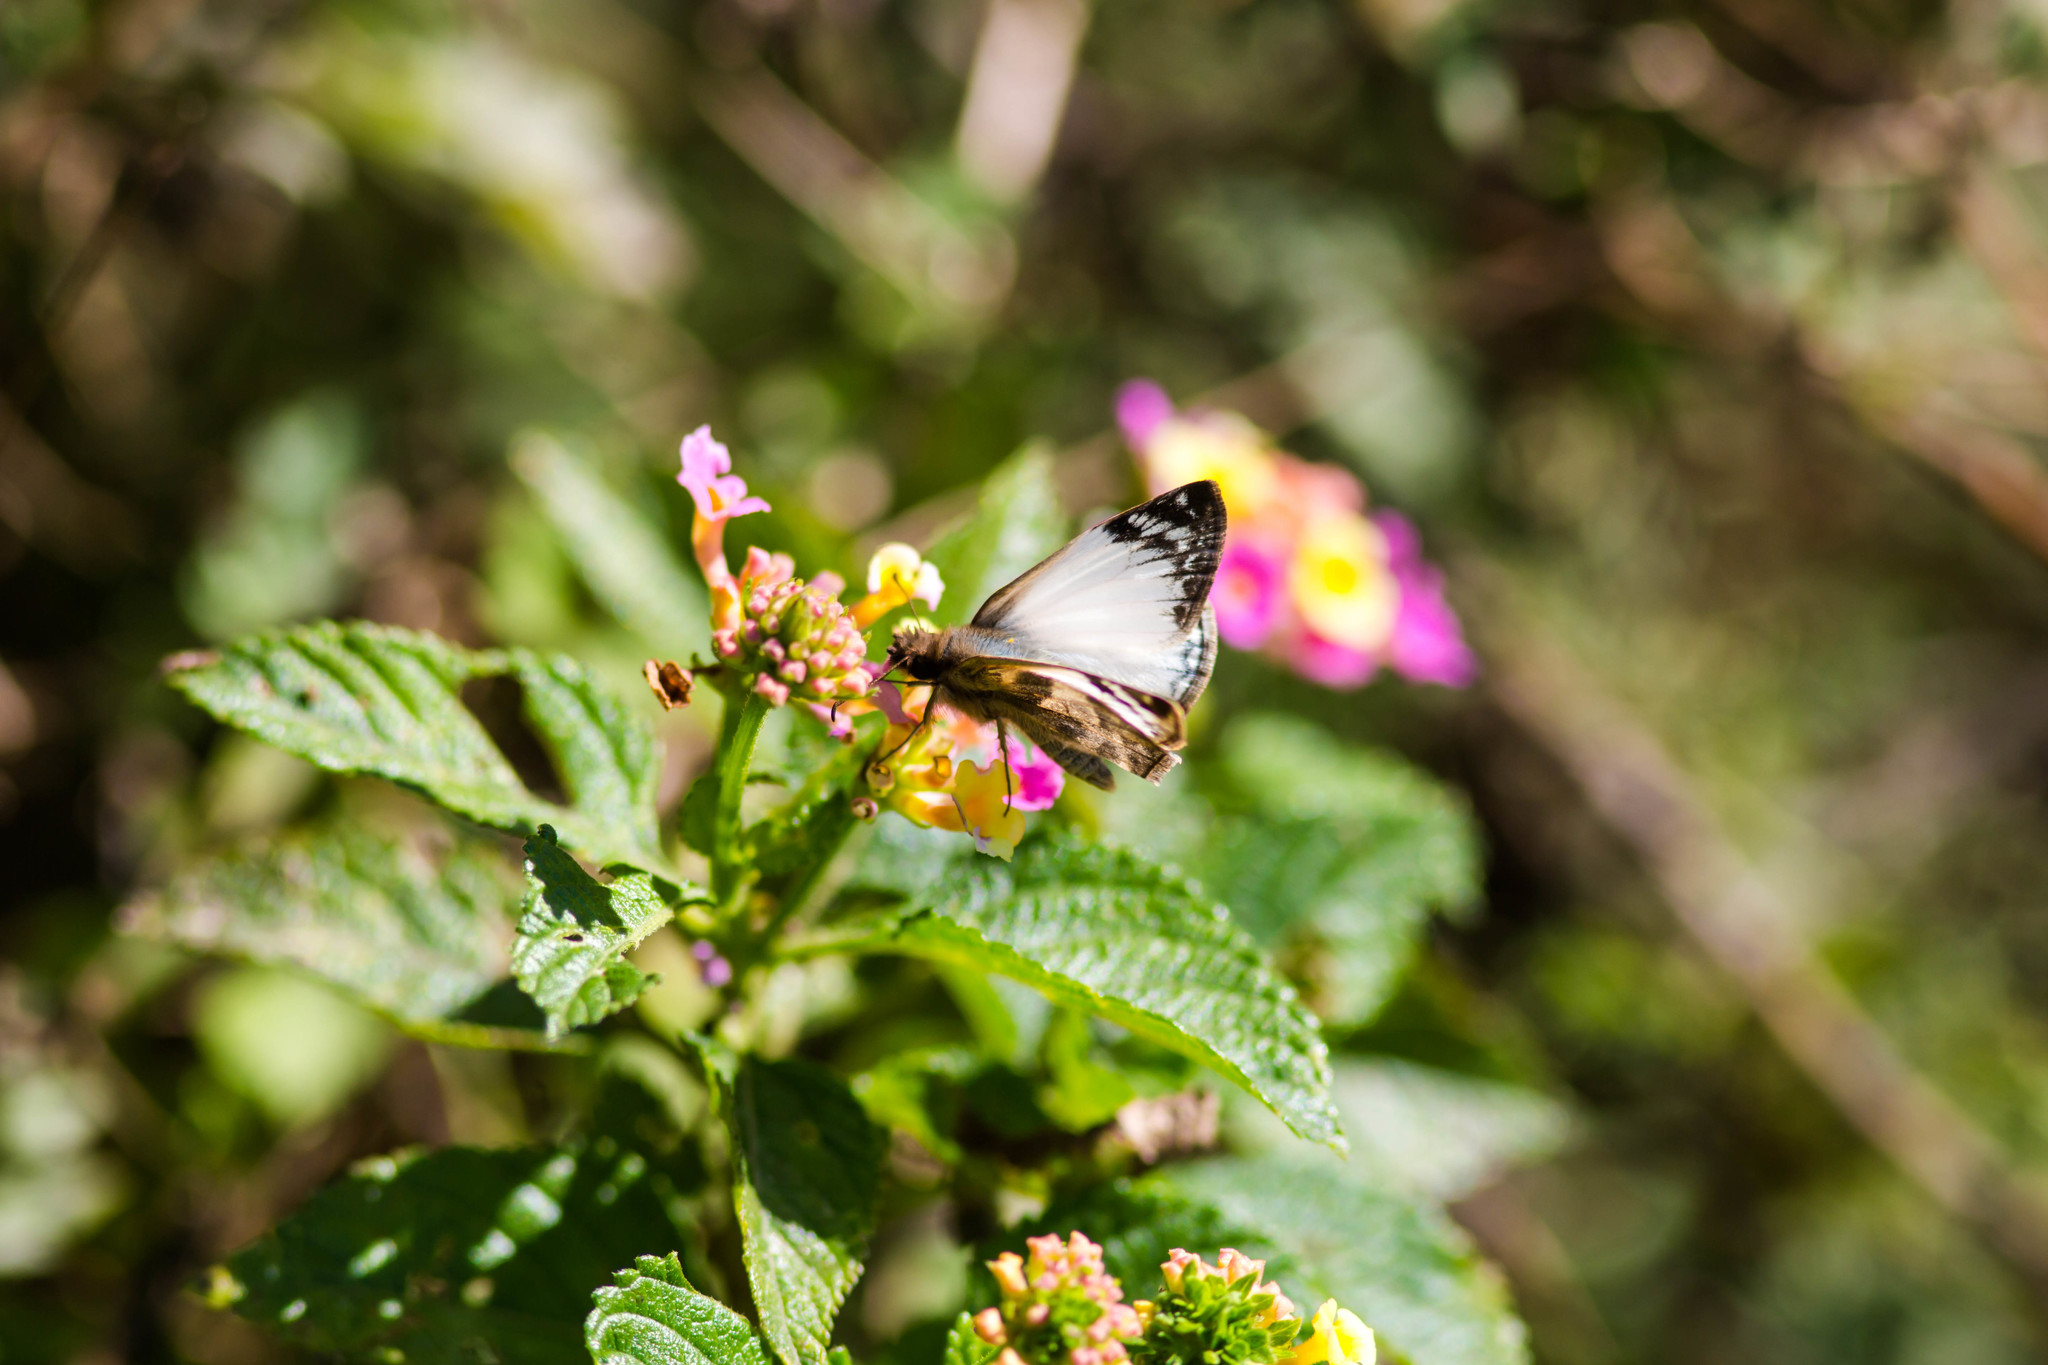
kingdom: Animalia
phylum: Arthropoda
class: Insecta
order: Lepidoptera
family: Hesperiidae
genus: Heliopetes
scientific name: Heliopetes laviana
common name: Laviana white-skipper
